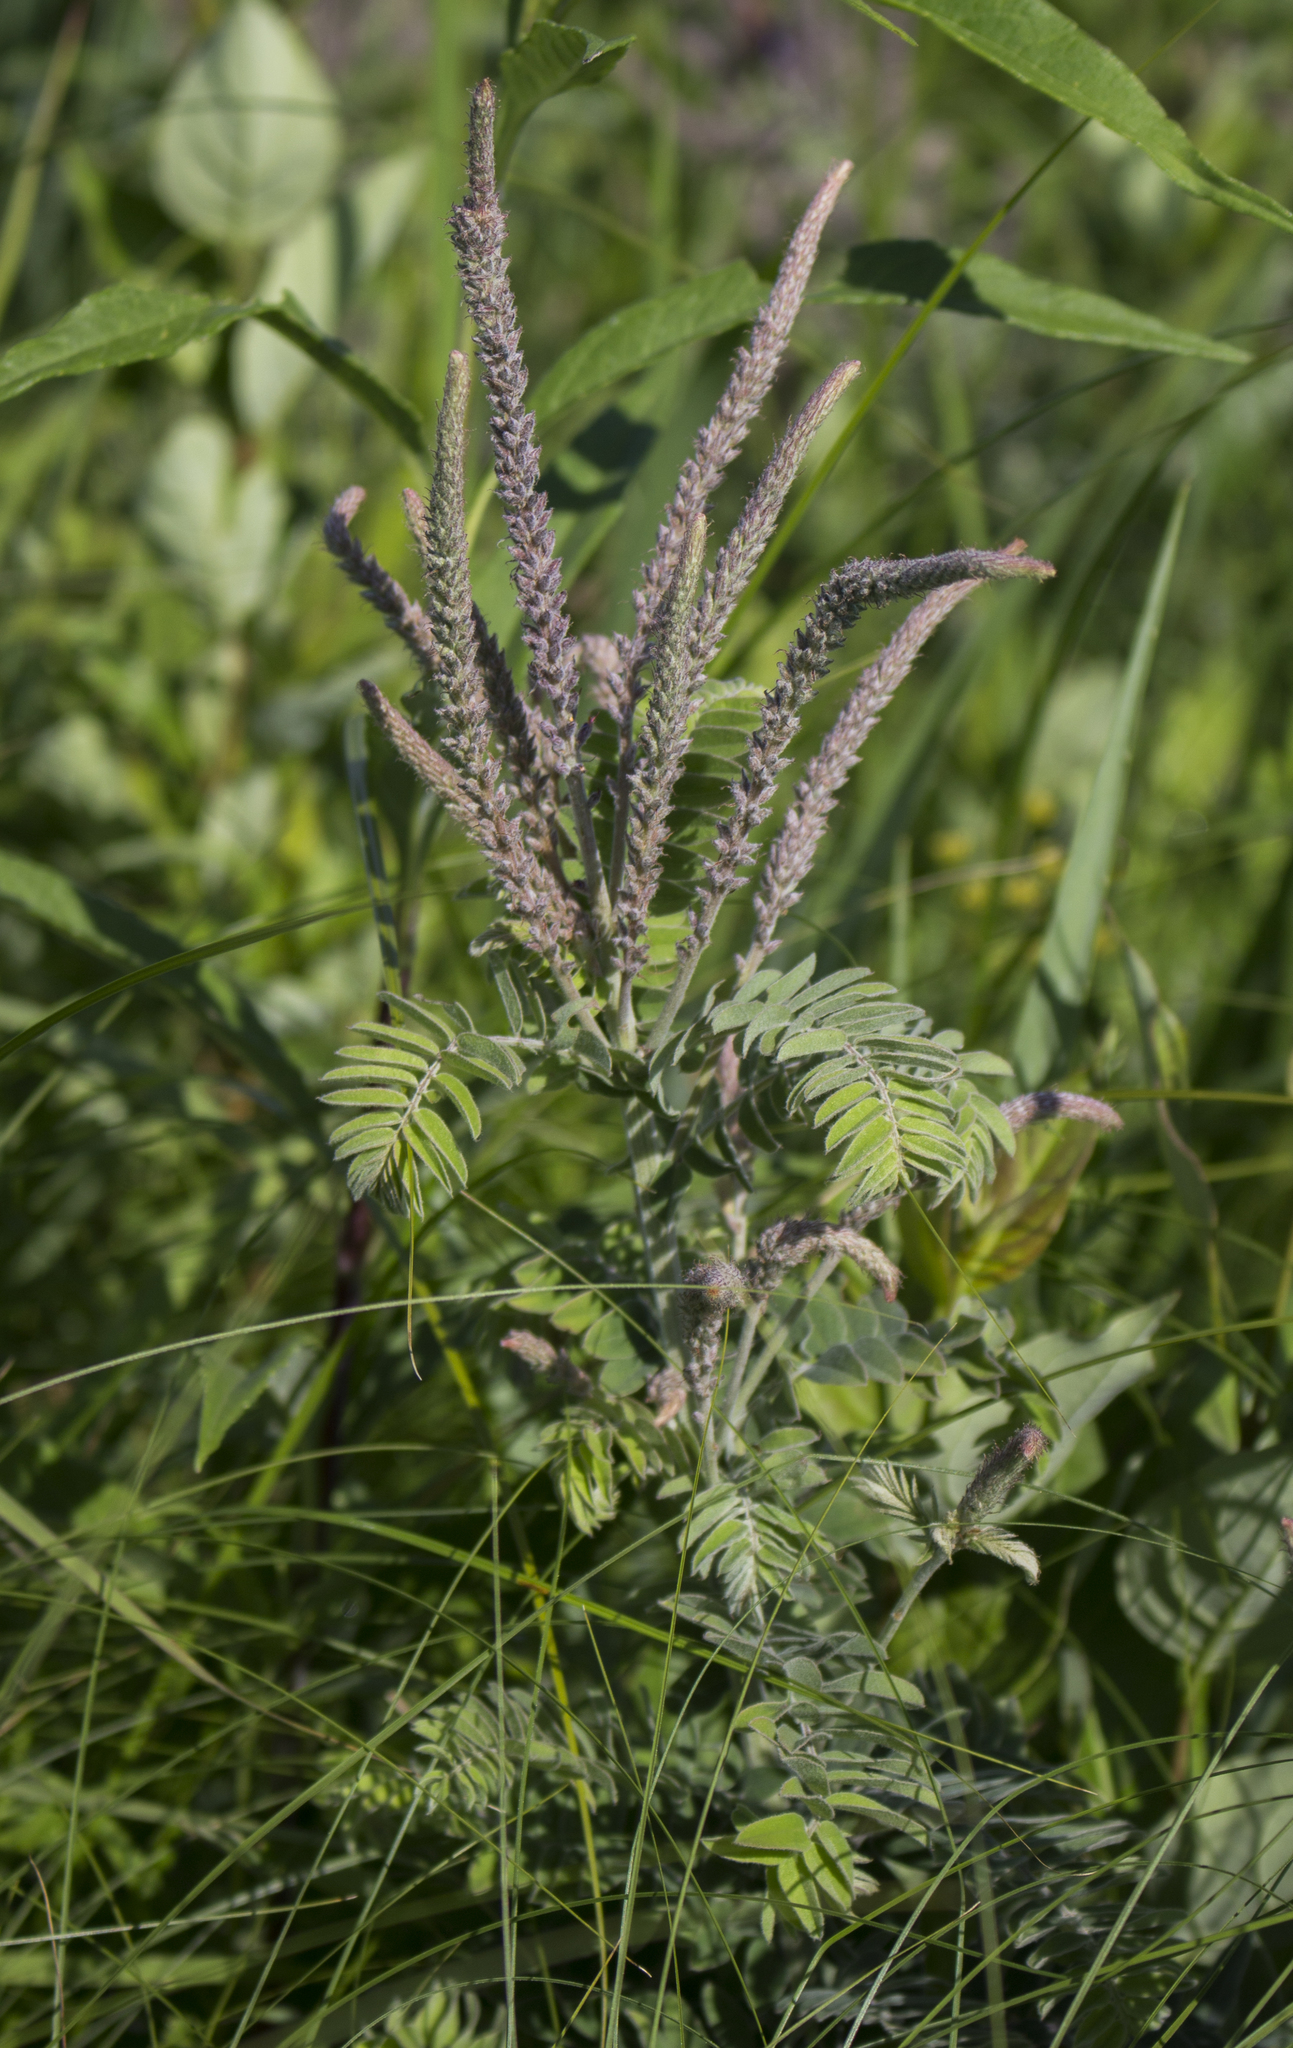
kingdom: Plantae
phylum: Tracheophyta
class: Magnoliopsida
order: Fabales
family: Fabaceae
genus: Amorpha
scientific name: Amorpha canescens
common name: Leadplant
